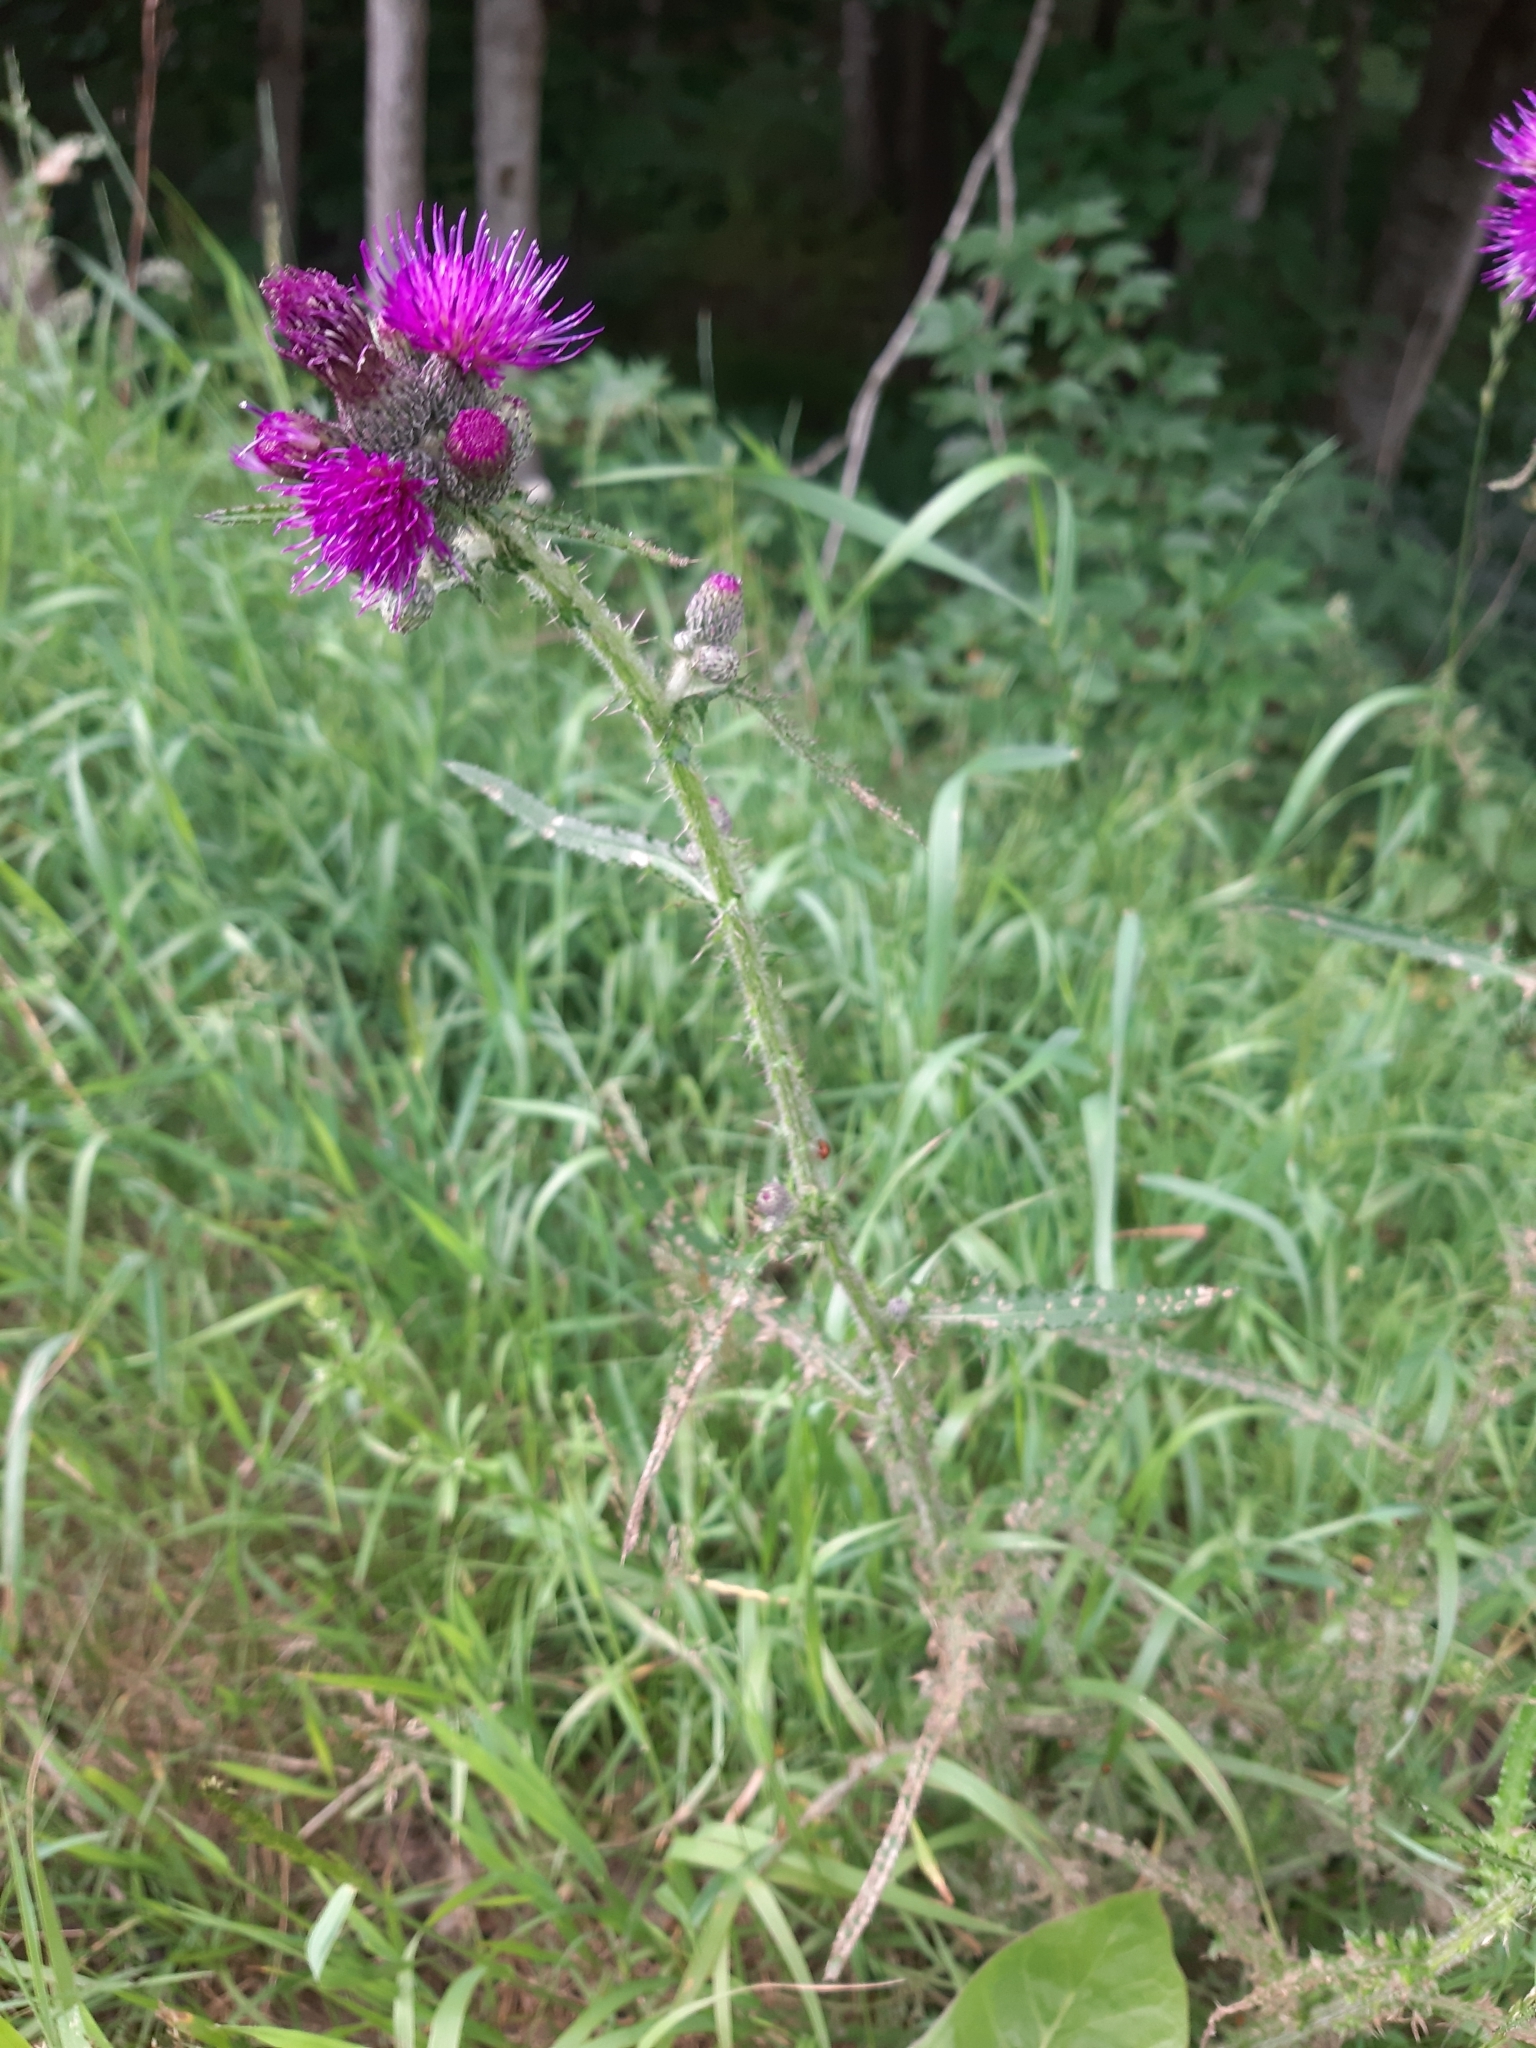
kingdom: Plantae
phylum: Tracheophyta
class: Magnoliopsida
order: Asterales
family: Asteraceae
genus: Cirsium
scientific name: Cirsium palustre
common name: Marsh thistle
